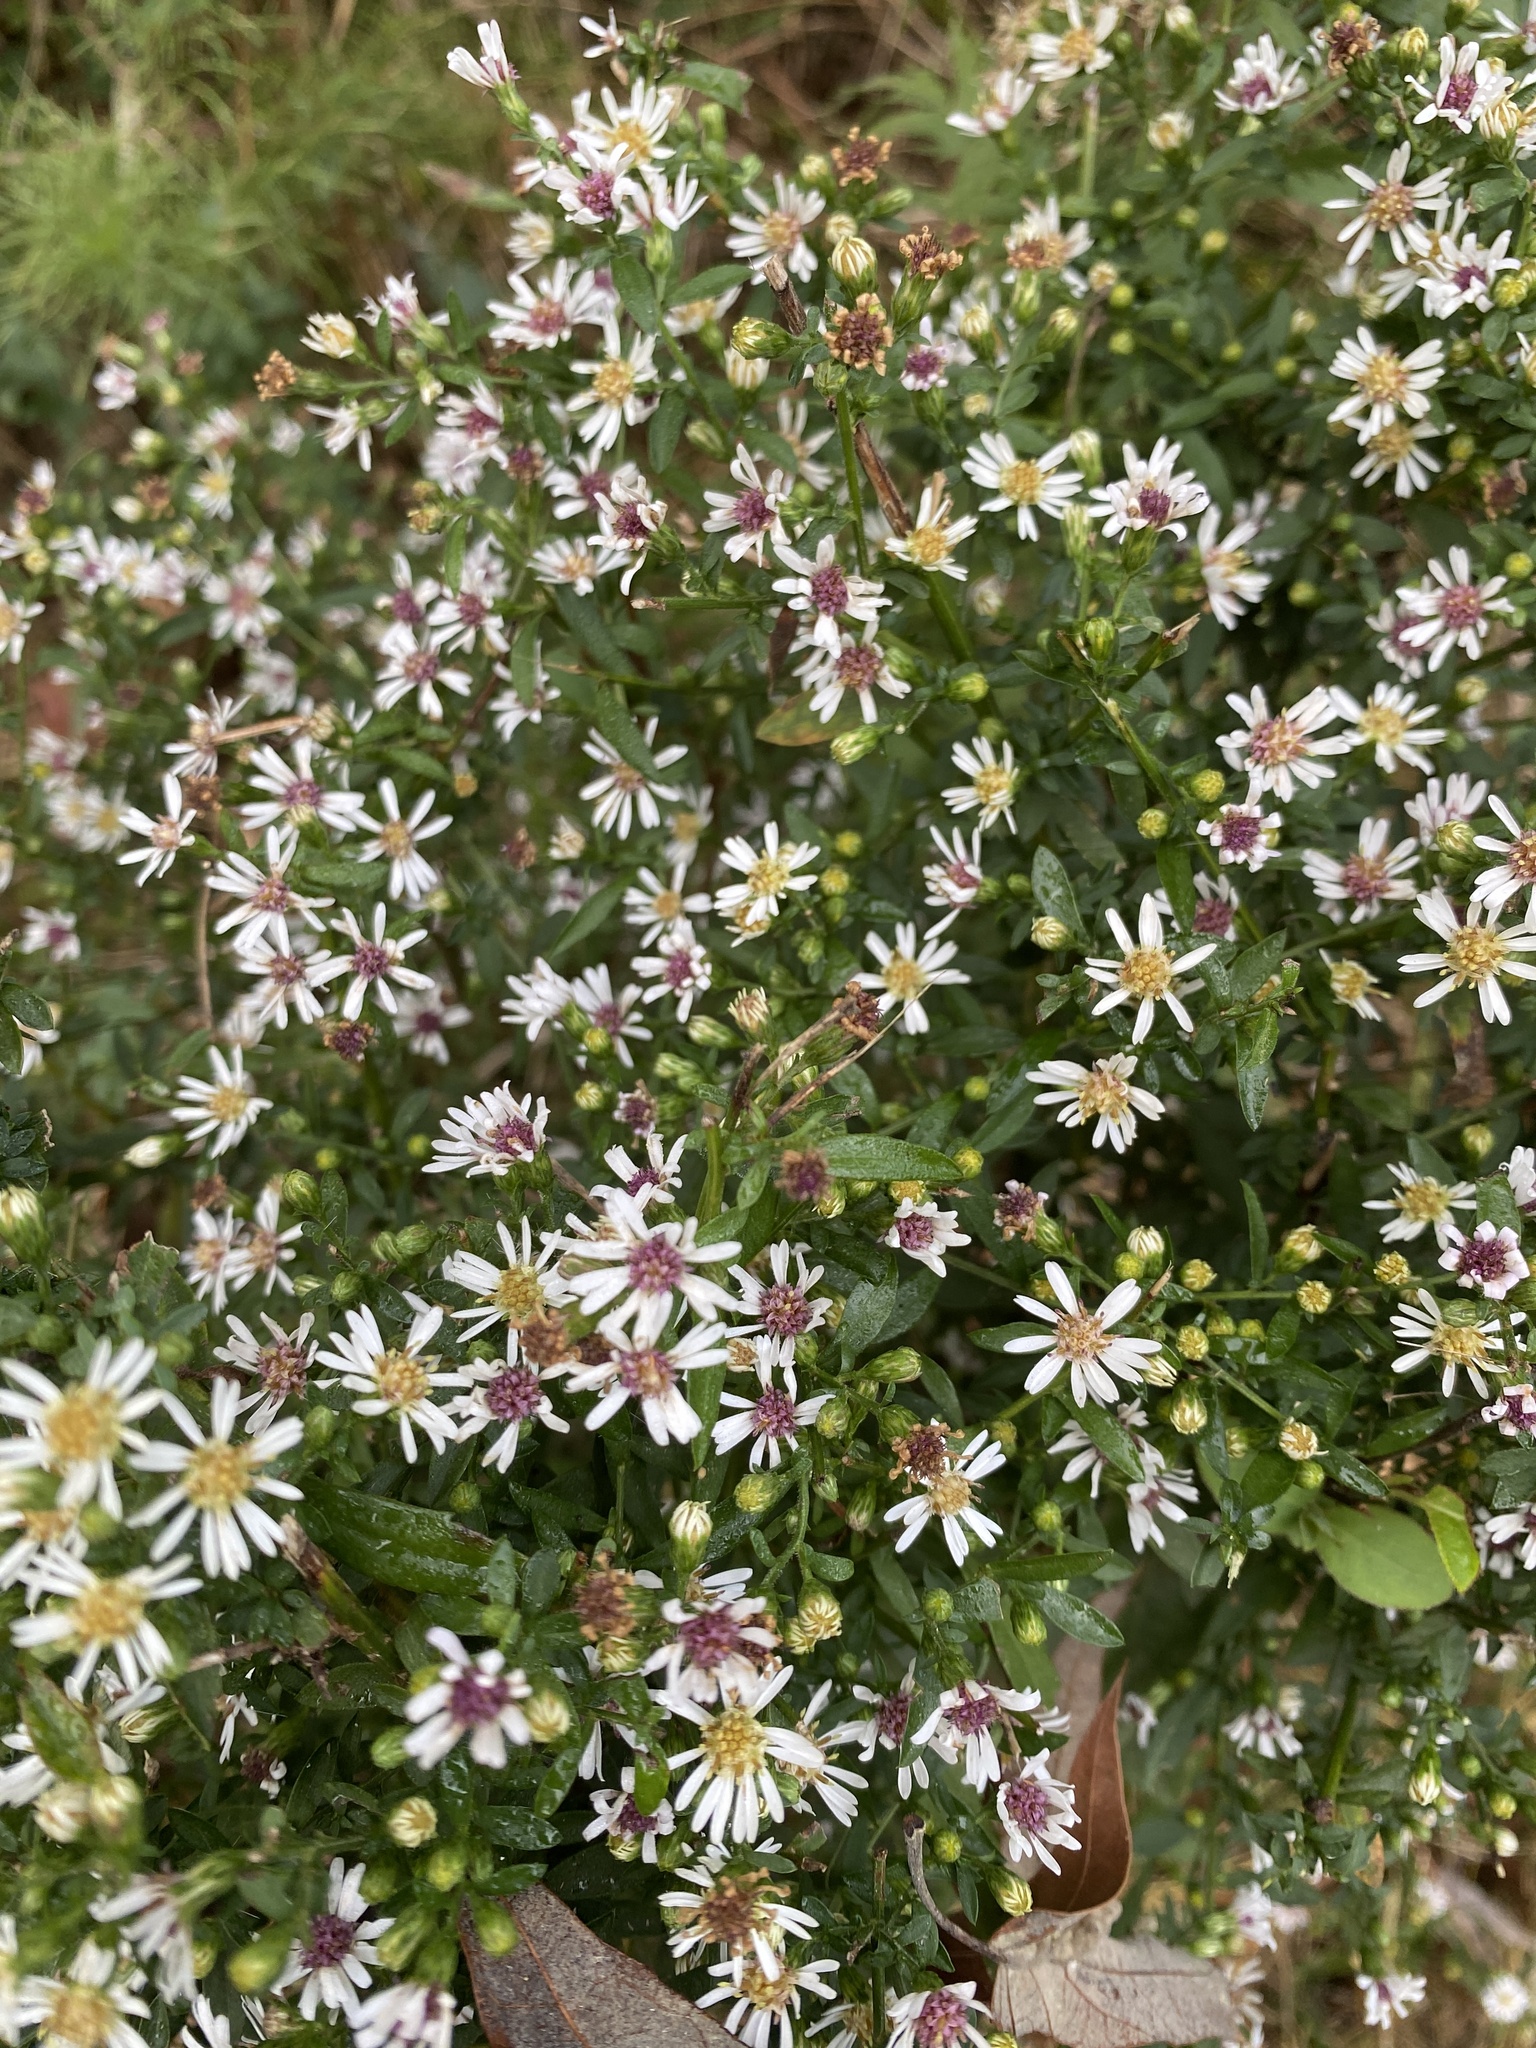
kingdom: Plantae
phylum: Tracheophyta
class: Magnoliopsida
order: Asterales
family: Asteraceae
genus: Symphyotrichum
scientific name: Symphyotrichum lateriflorum
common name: Calico aster
